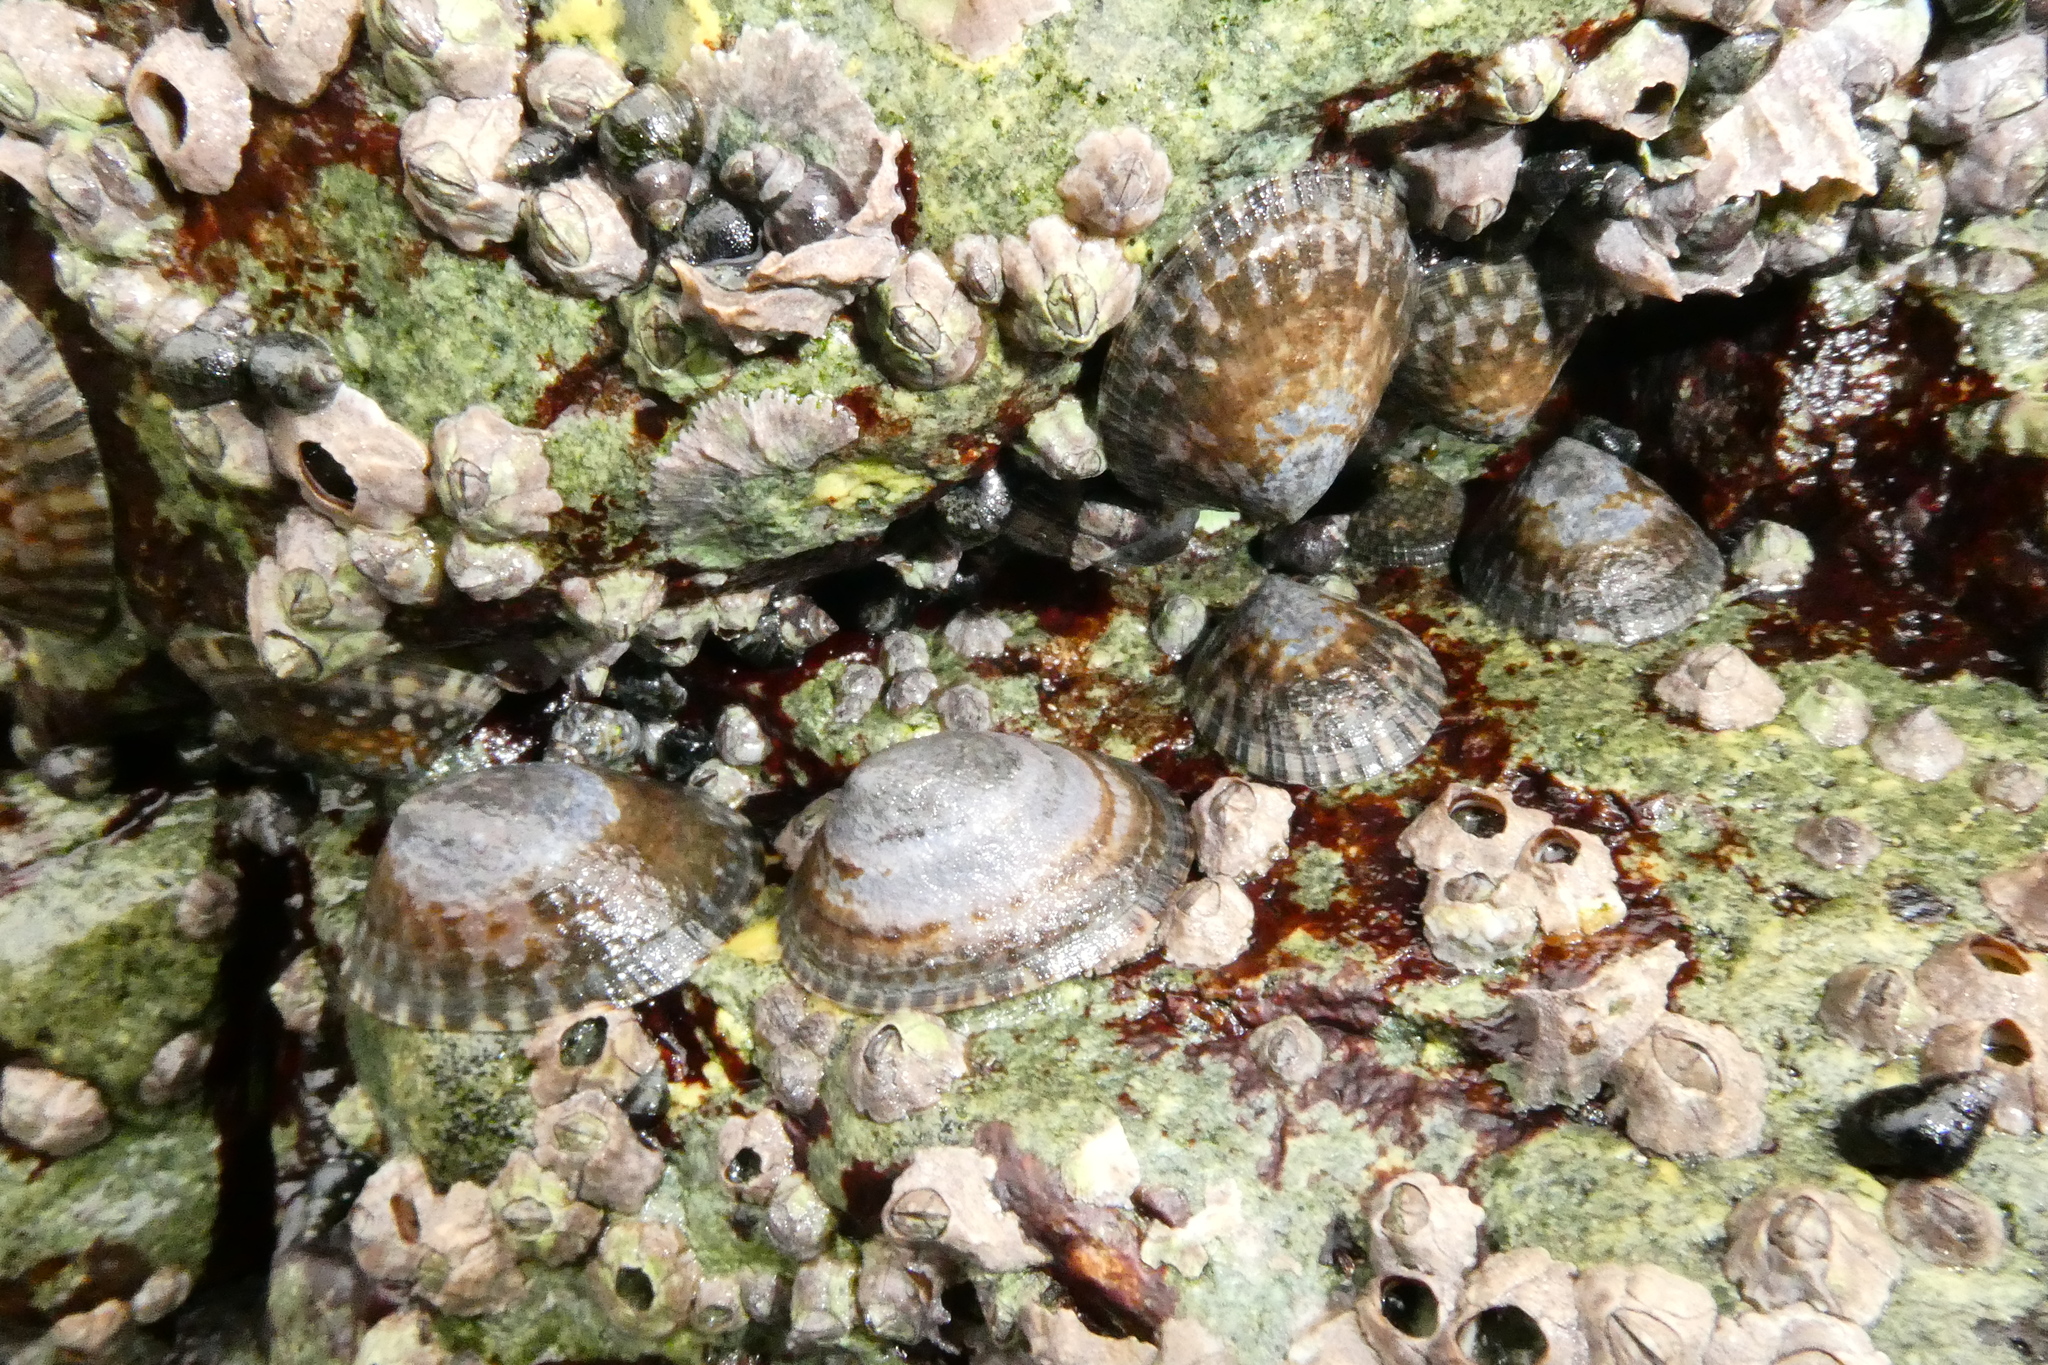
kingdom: Animalia
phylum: Mollusca
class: Gastropoda
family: Lottiidae
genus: Lottia
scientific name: Lottia persona
